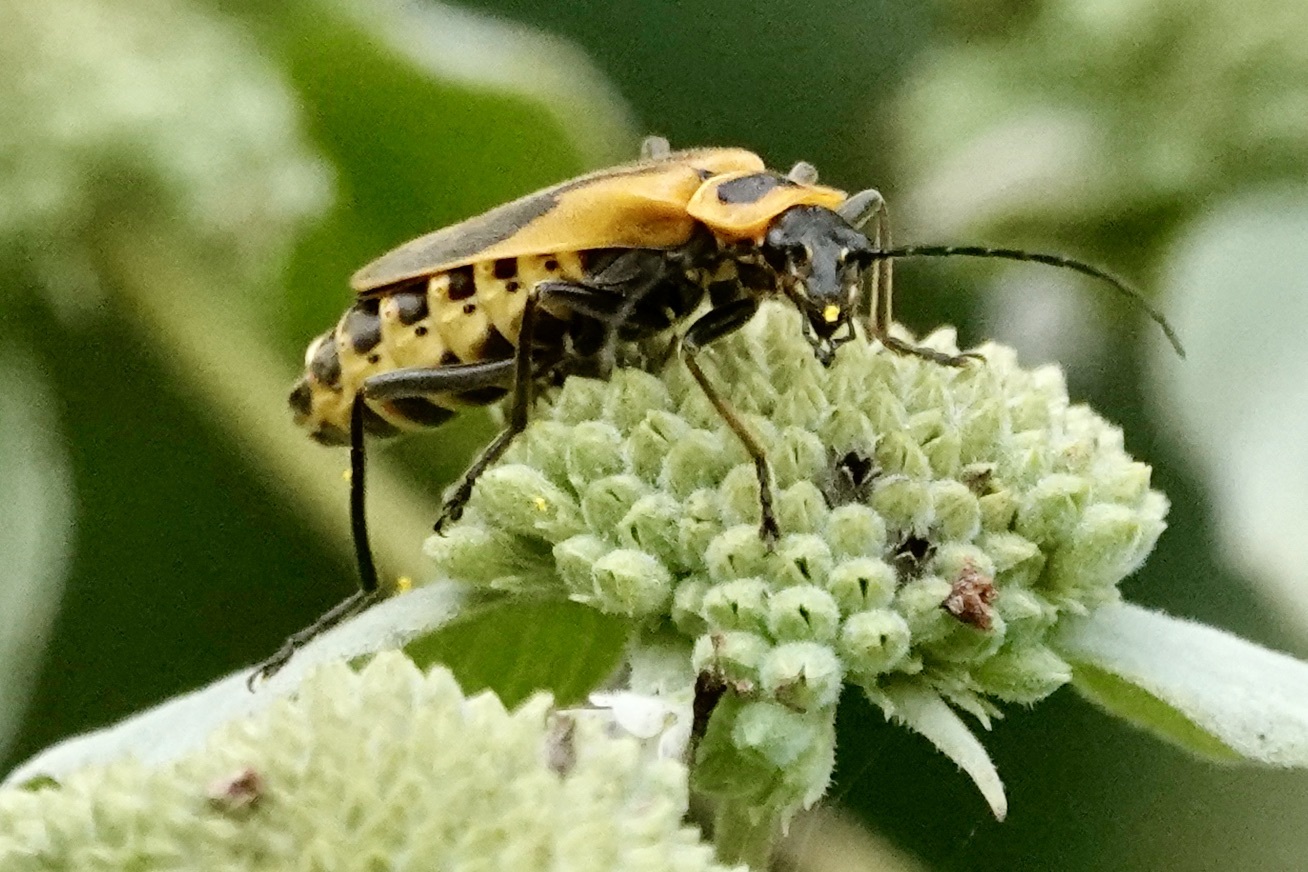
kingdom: Animalia
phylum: Arthropoda
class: Insecta
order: Coleoptera
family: Cantharidae
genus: Chauliognathus
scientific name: Chauliognathus pensylvanicus
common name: Goldenrod soldier beetle
